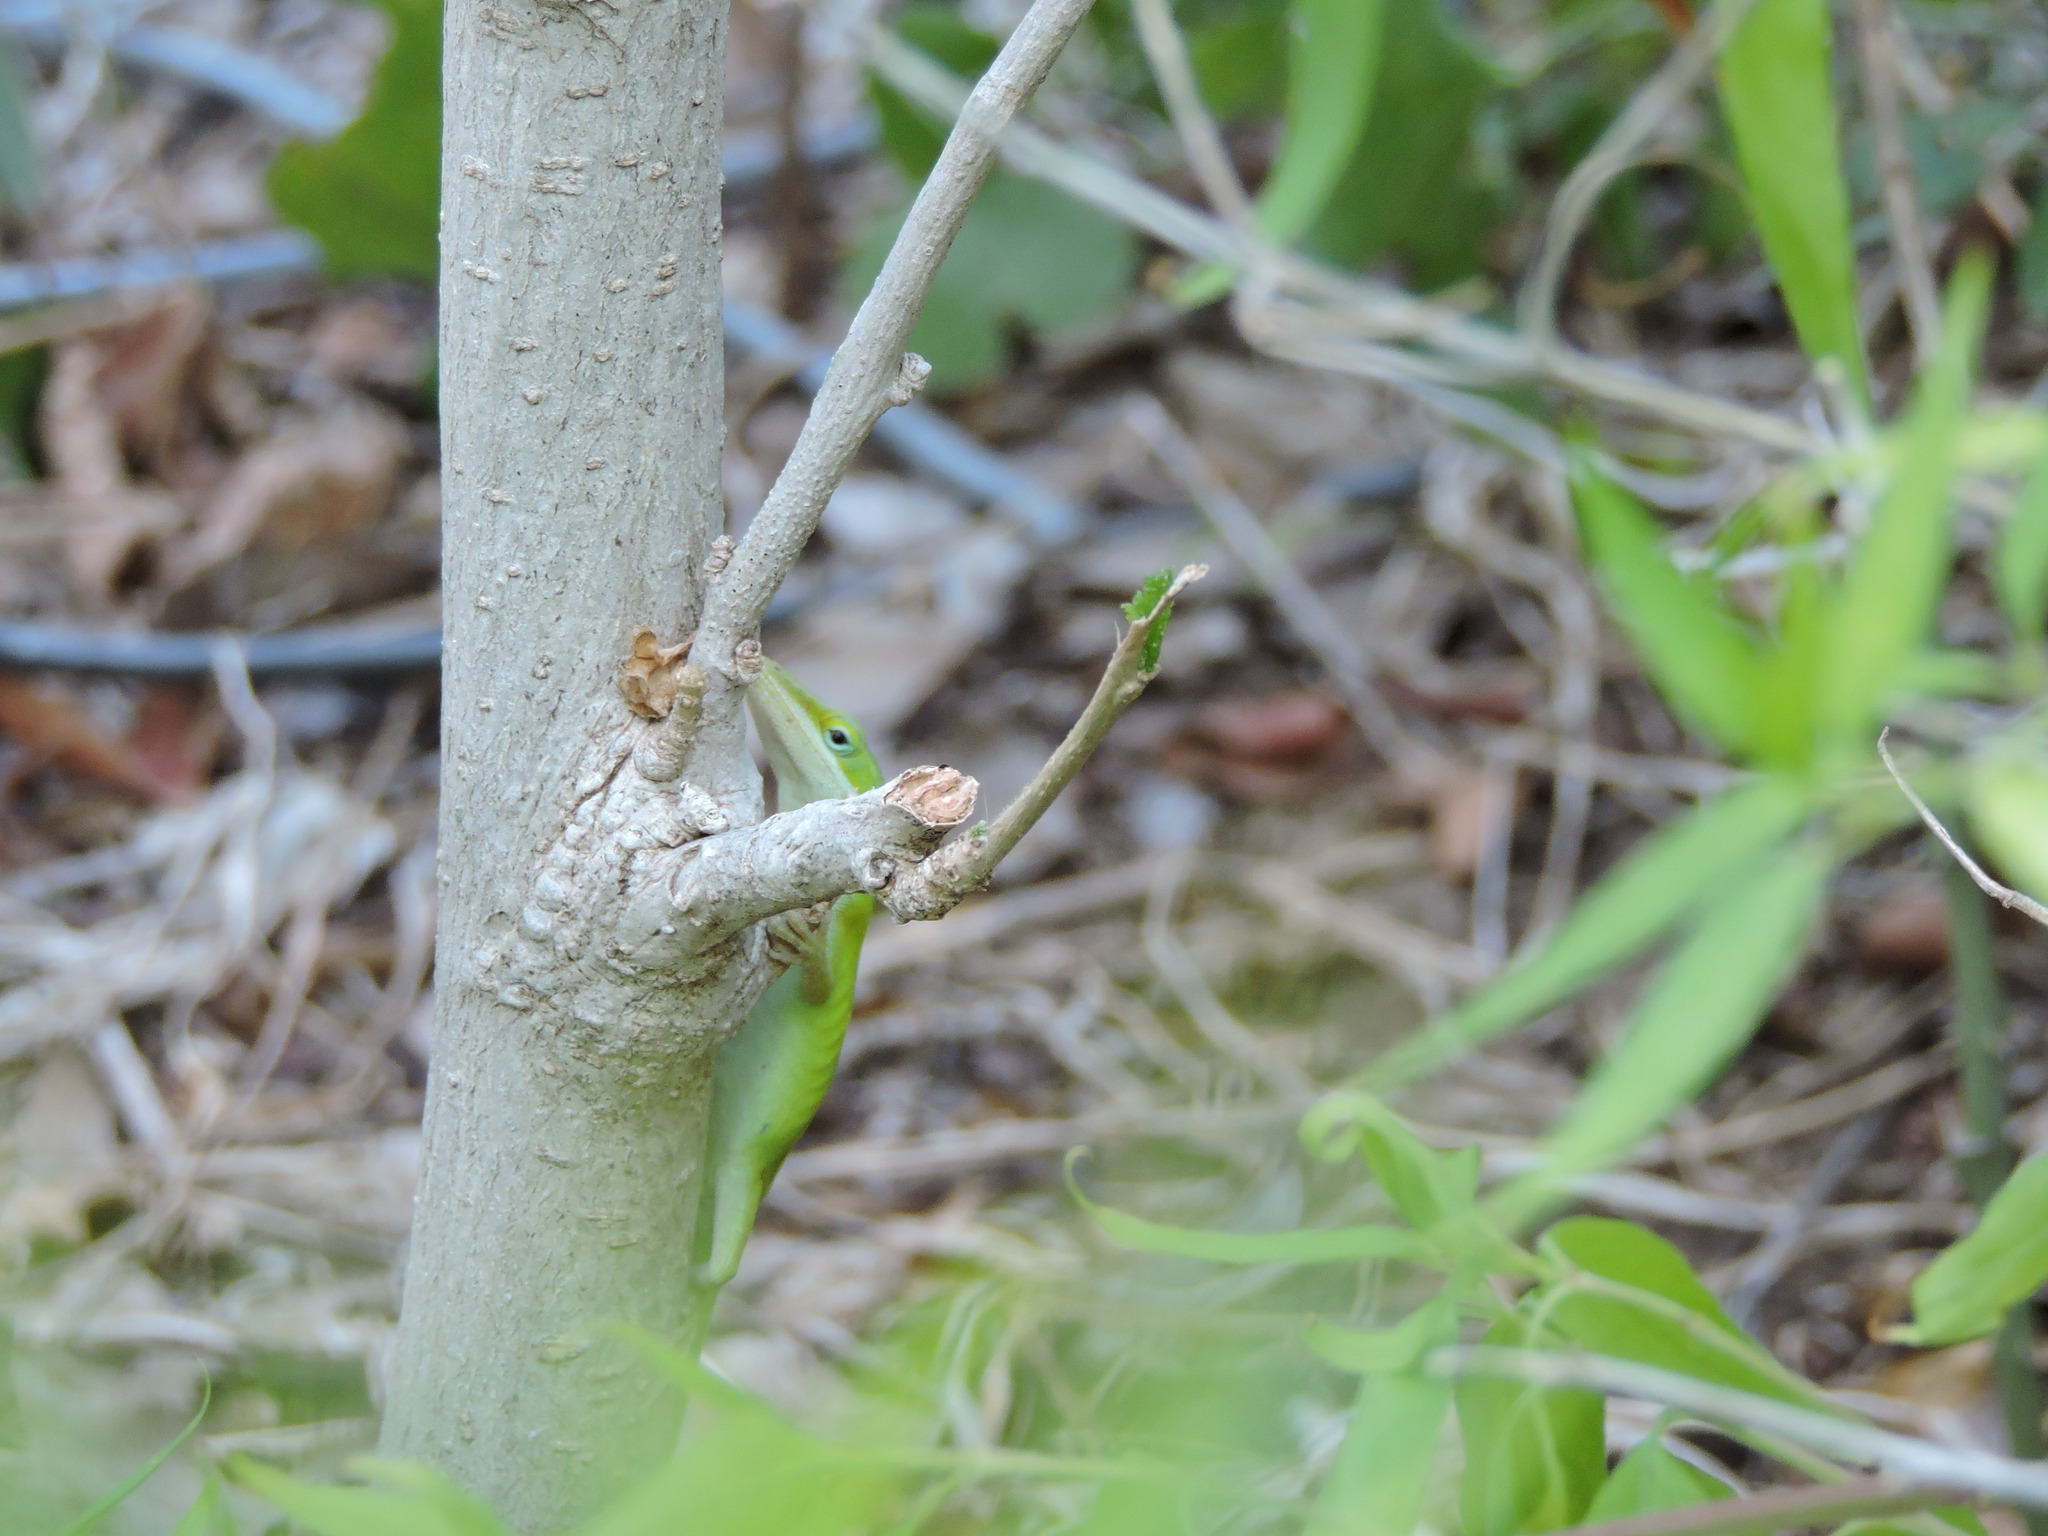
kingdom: Animalia
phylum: Chordata
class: Squamata
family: Dactyloidae
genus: Anolis
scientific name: Anolis carolinensis
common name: Green anole
